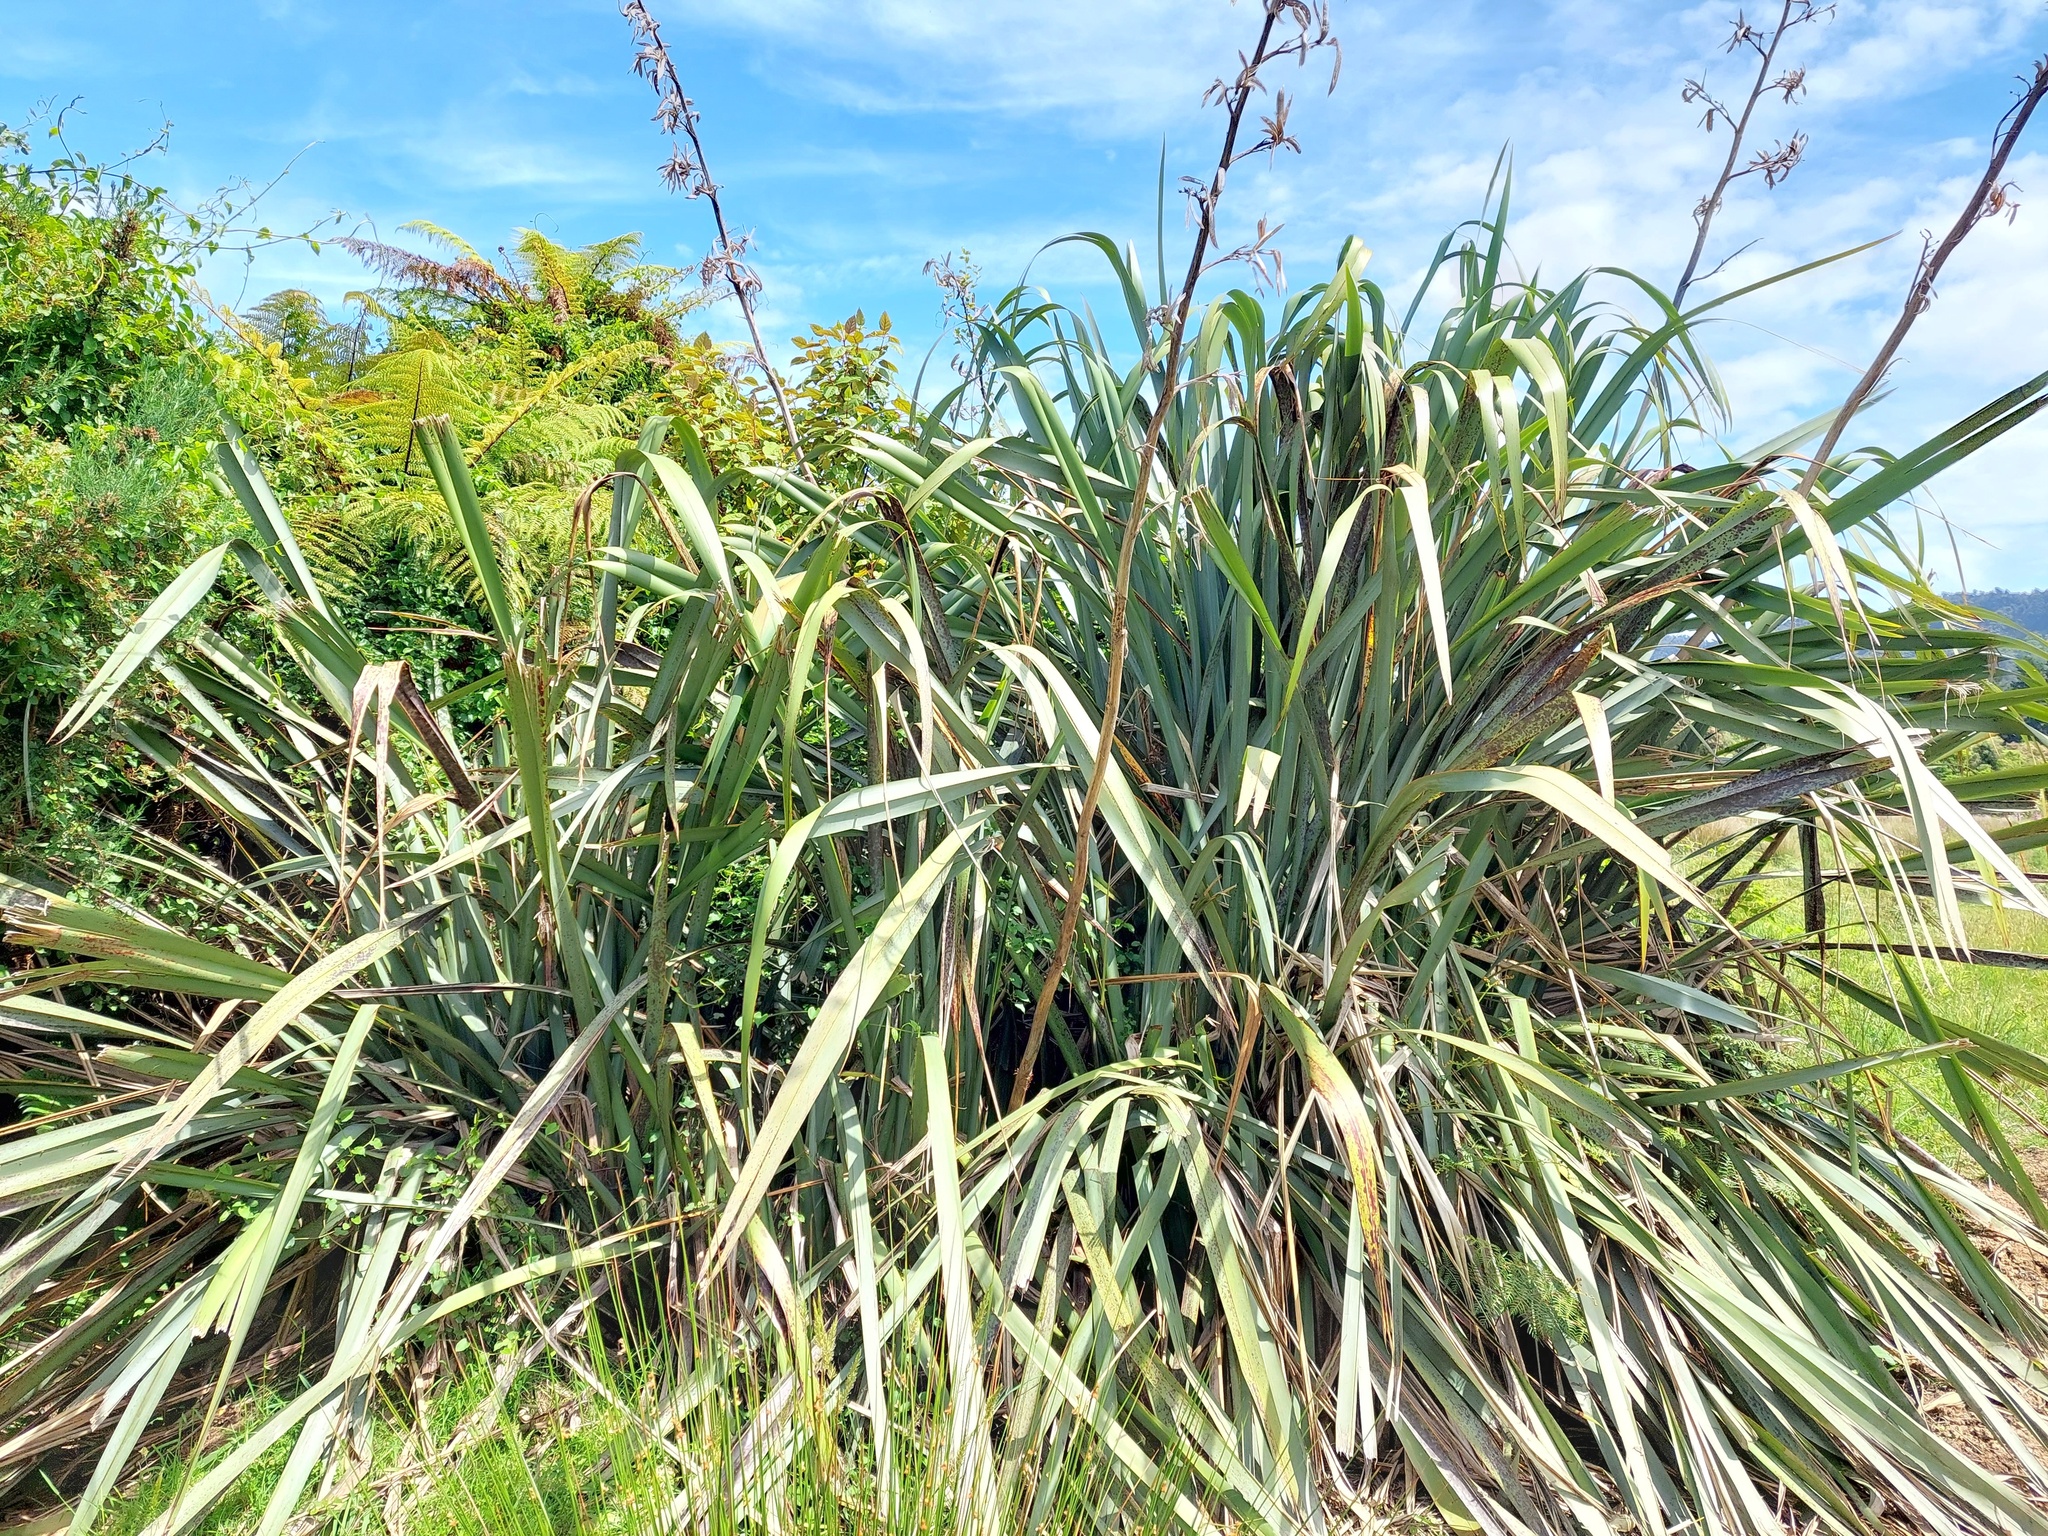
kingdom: Plantae
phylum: Tracheophyta
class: Liliopsida
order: Asparagales
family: Asphodelaceae
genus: Phormium
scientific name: Phormium tenax
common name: New zealand flax
